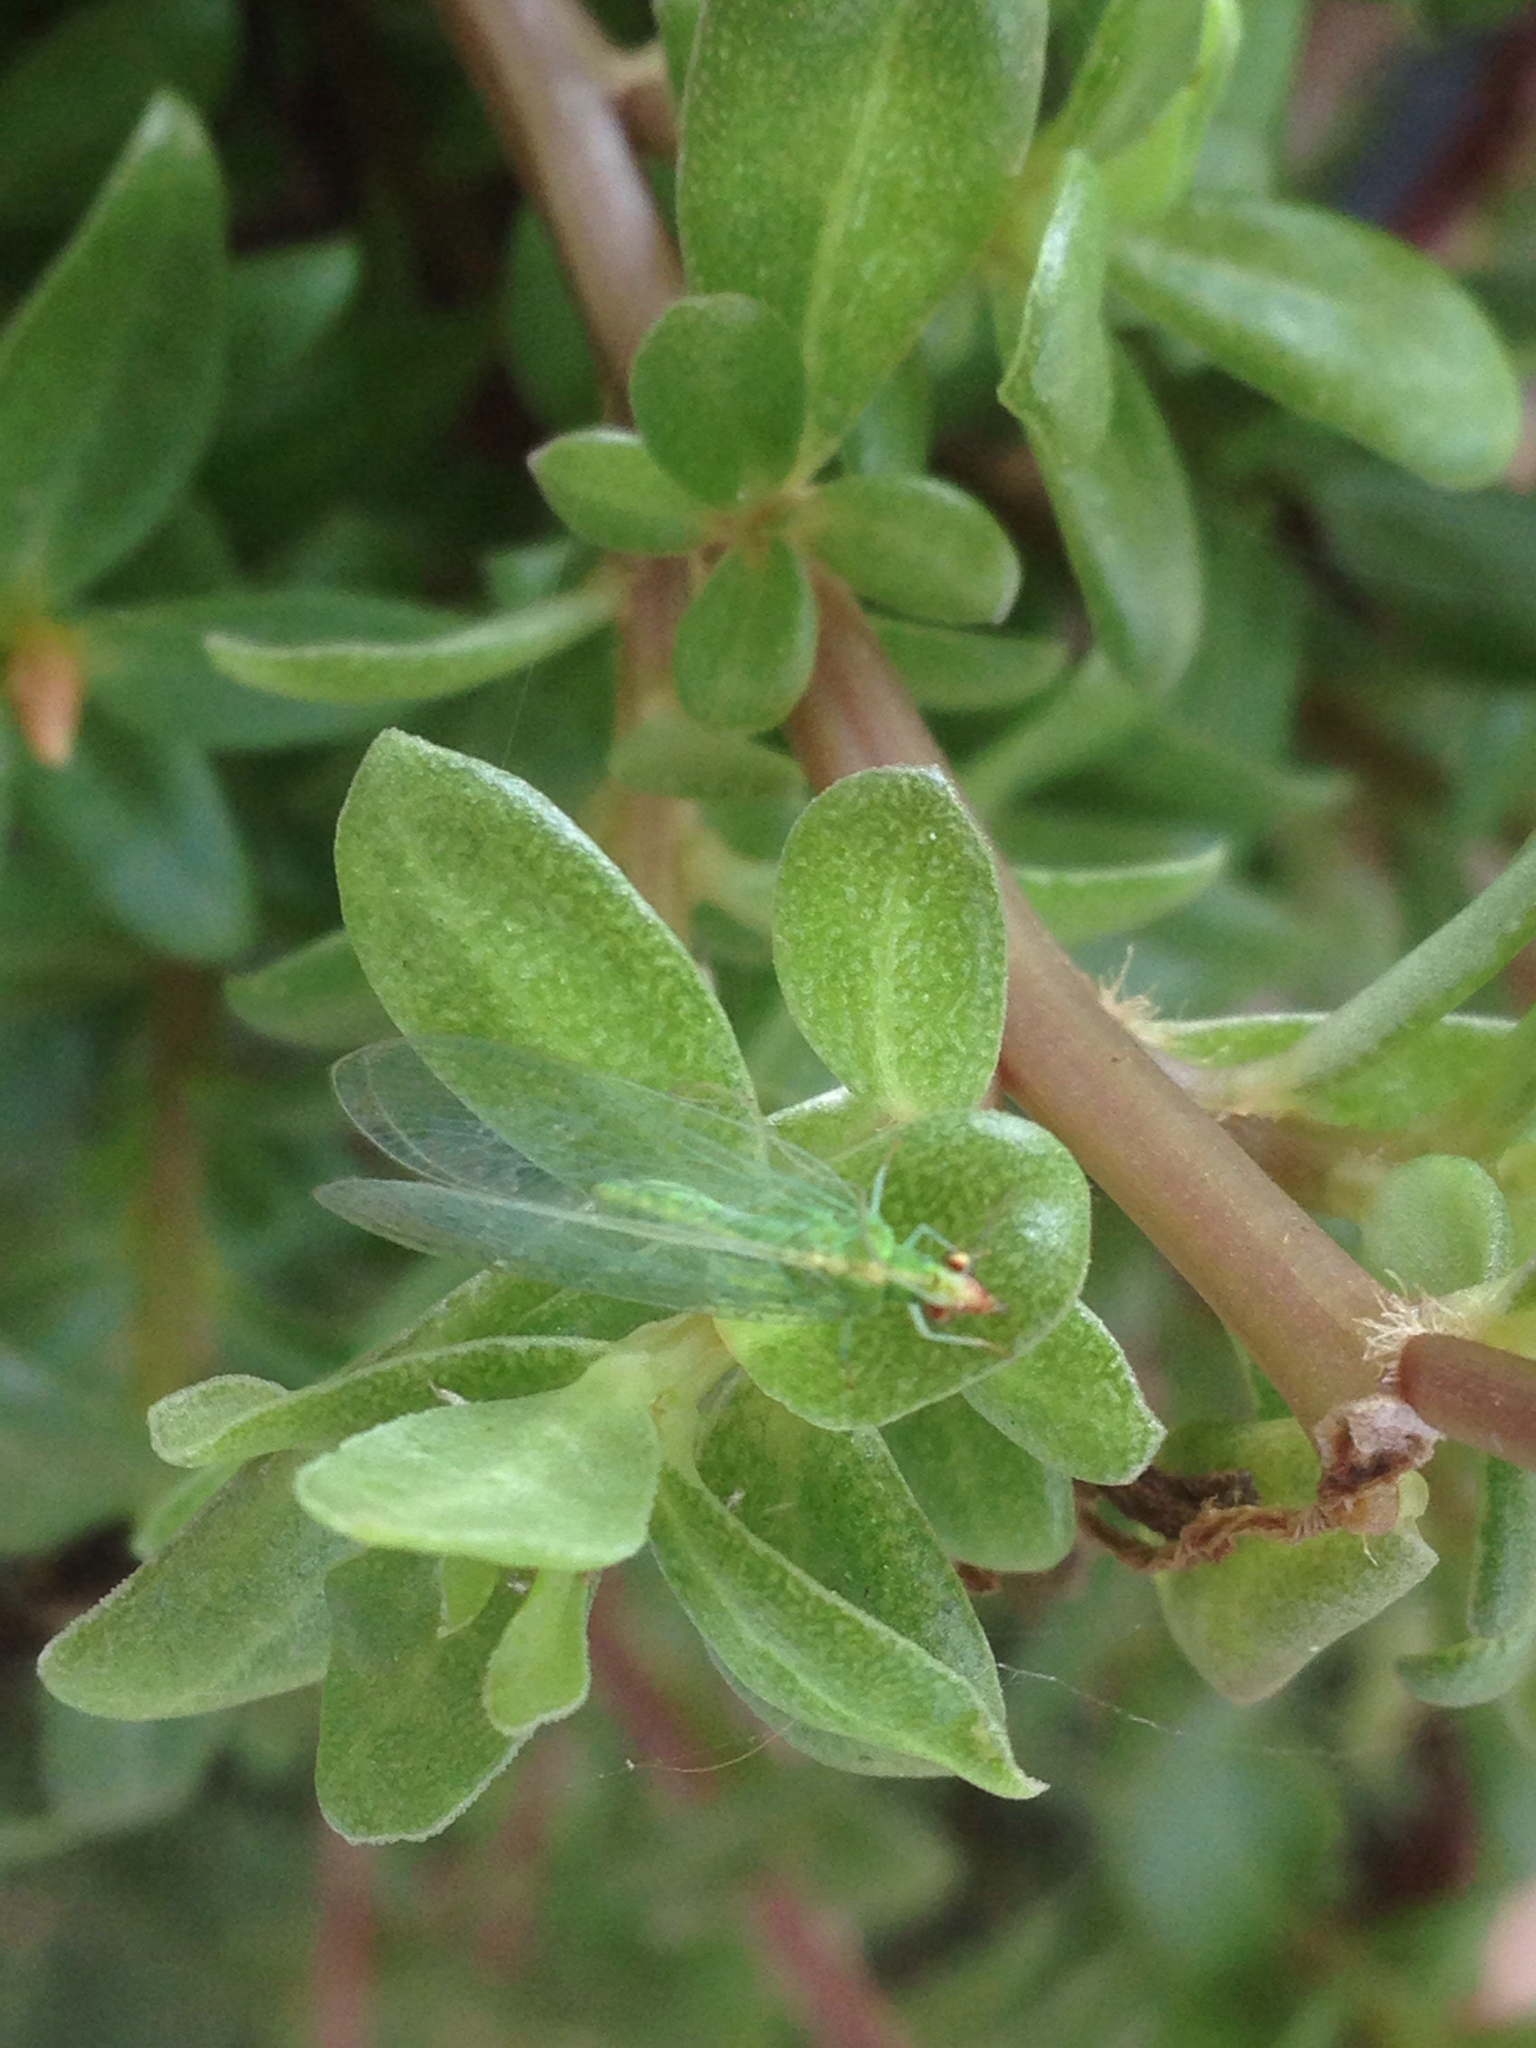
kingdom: Animalia
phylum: Arthropoda
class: Insecta
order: Neuroptera
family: Chrysopidae
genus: Chrysoperla
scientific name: Chrysoperla
